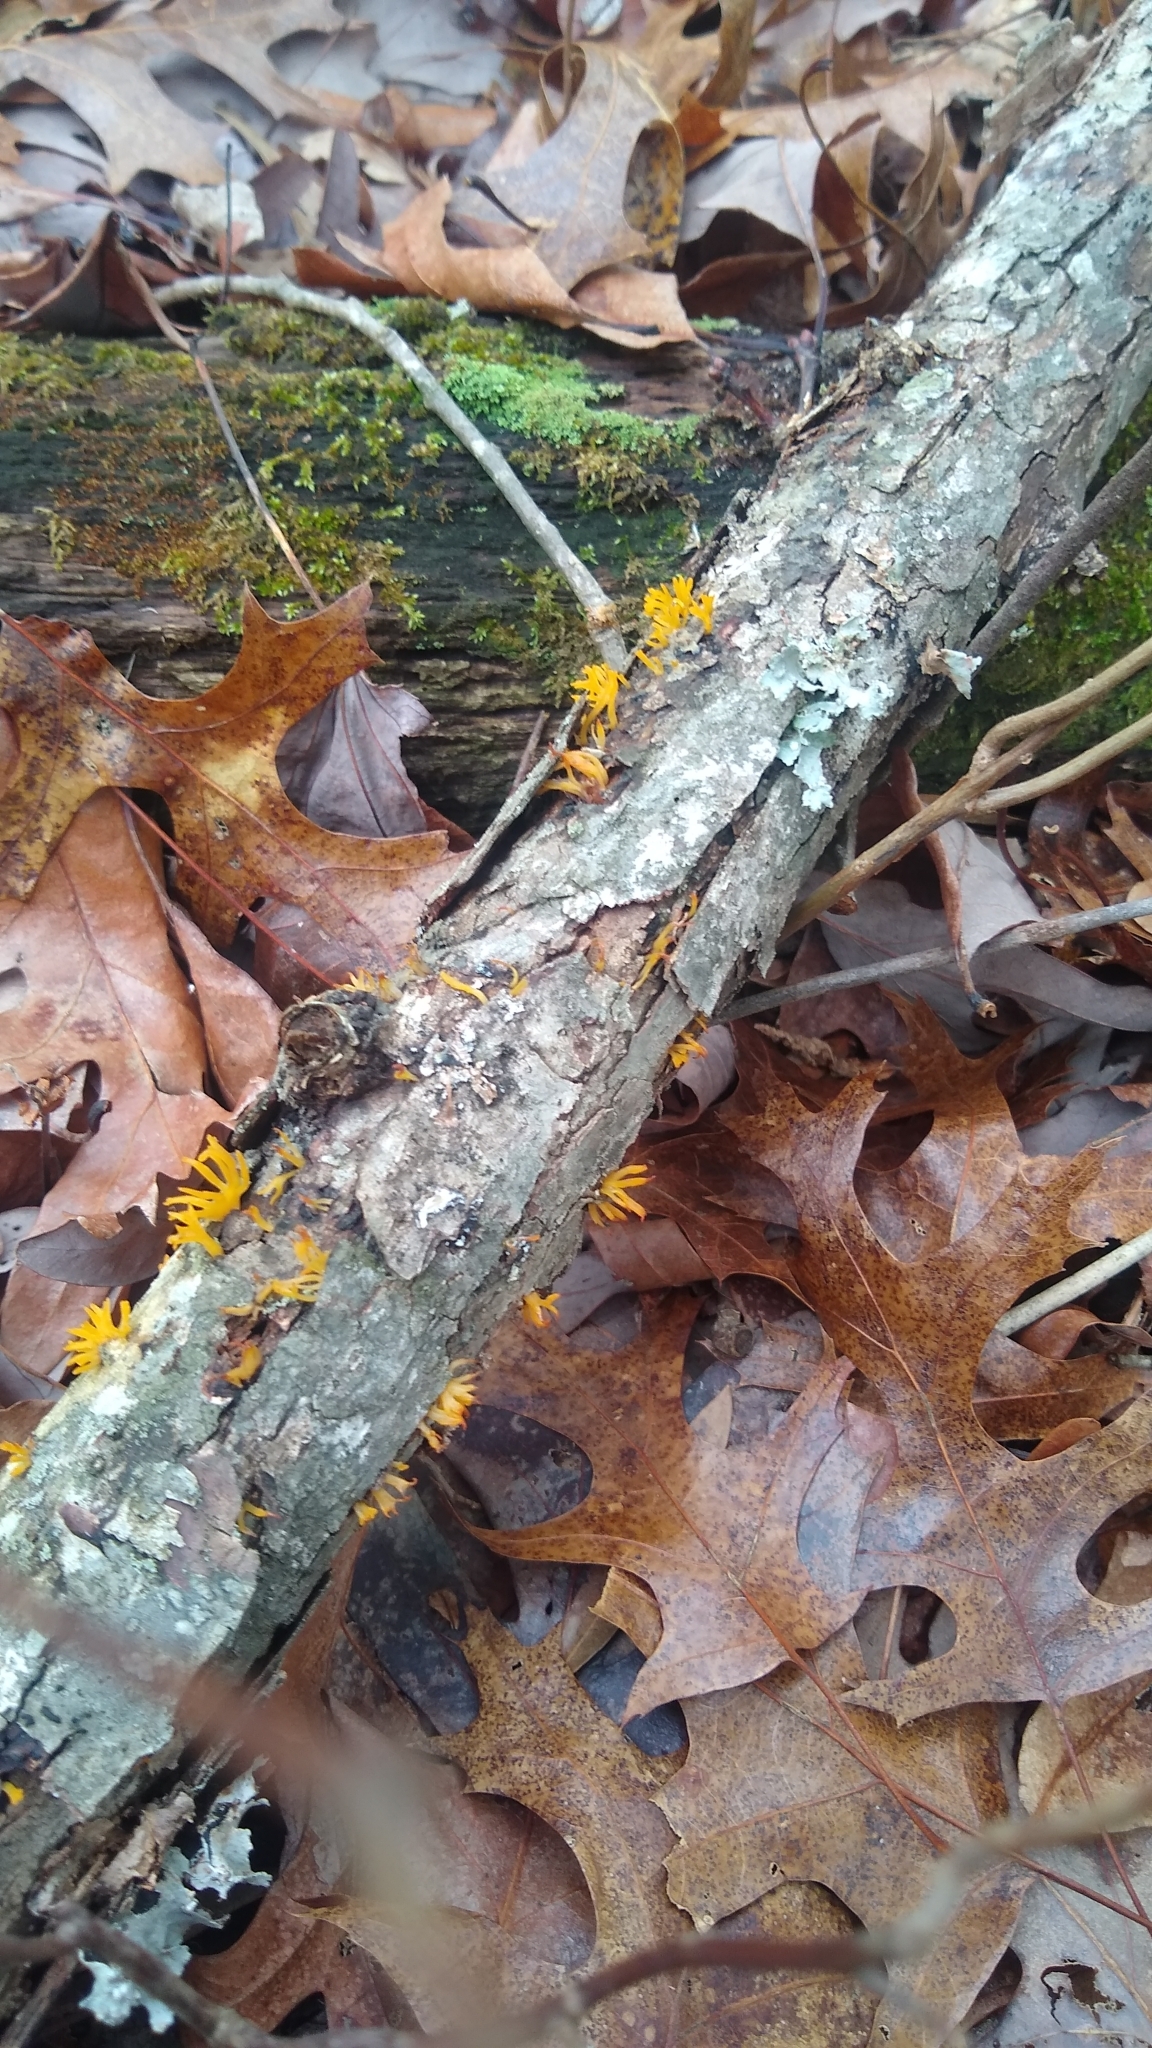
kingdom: Fungi
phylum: Basidiomycota
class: Dacrymycetes
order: Dacrymycetales
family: Dacrymycetaceae
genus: Calocera
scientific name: Calocera cornea
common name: Small stagshorn
